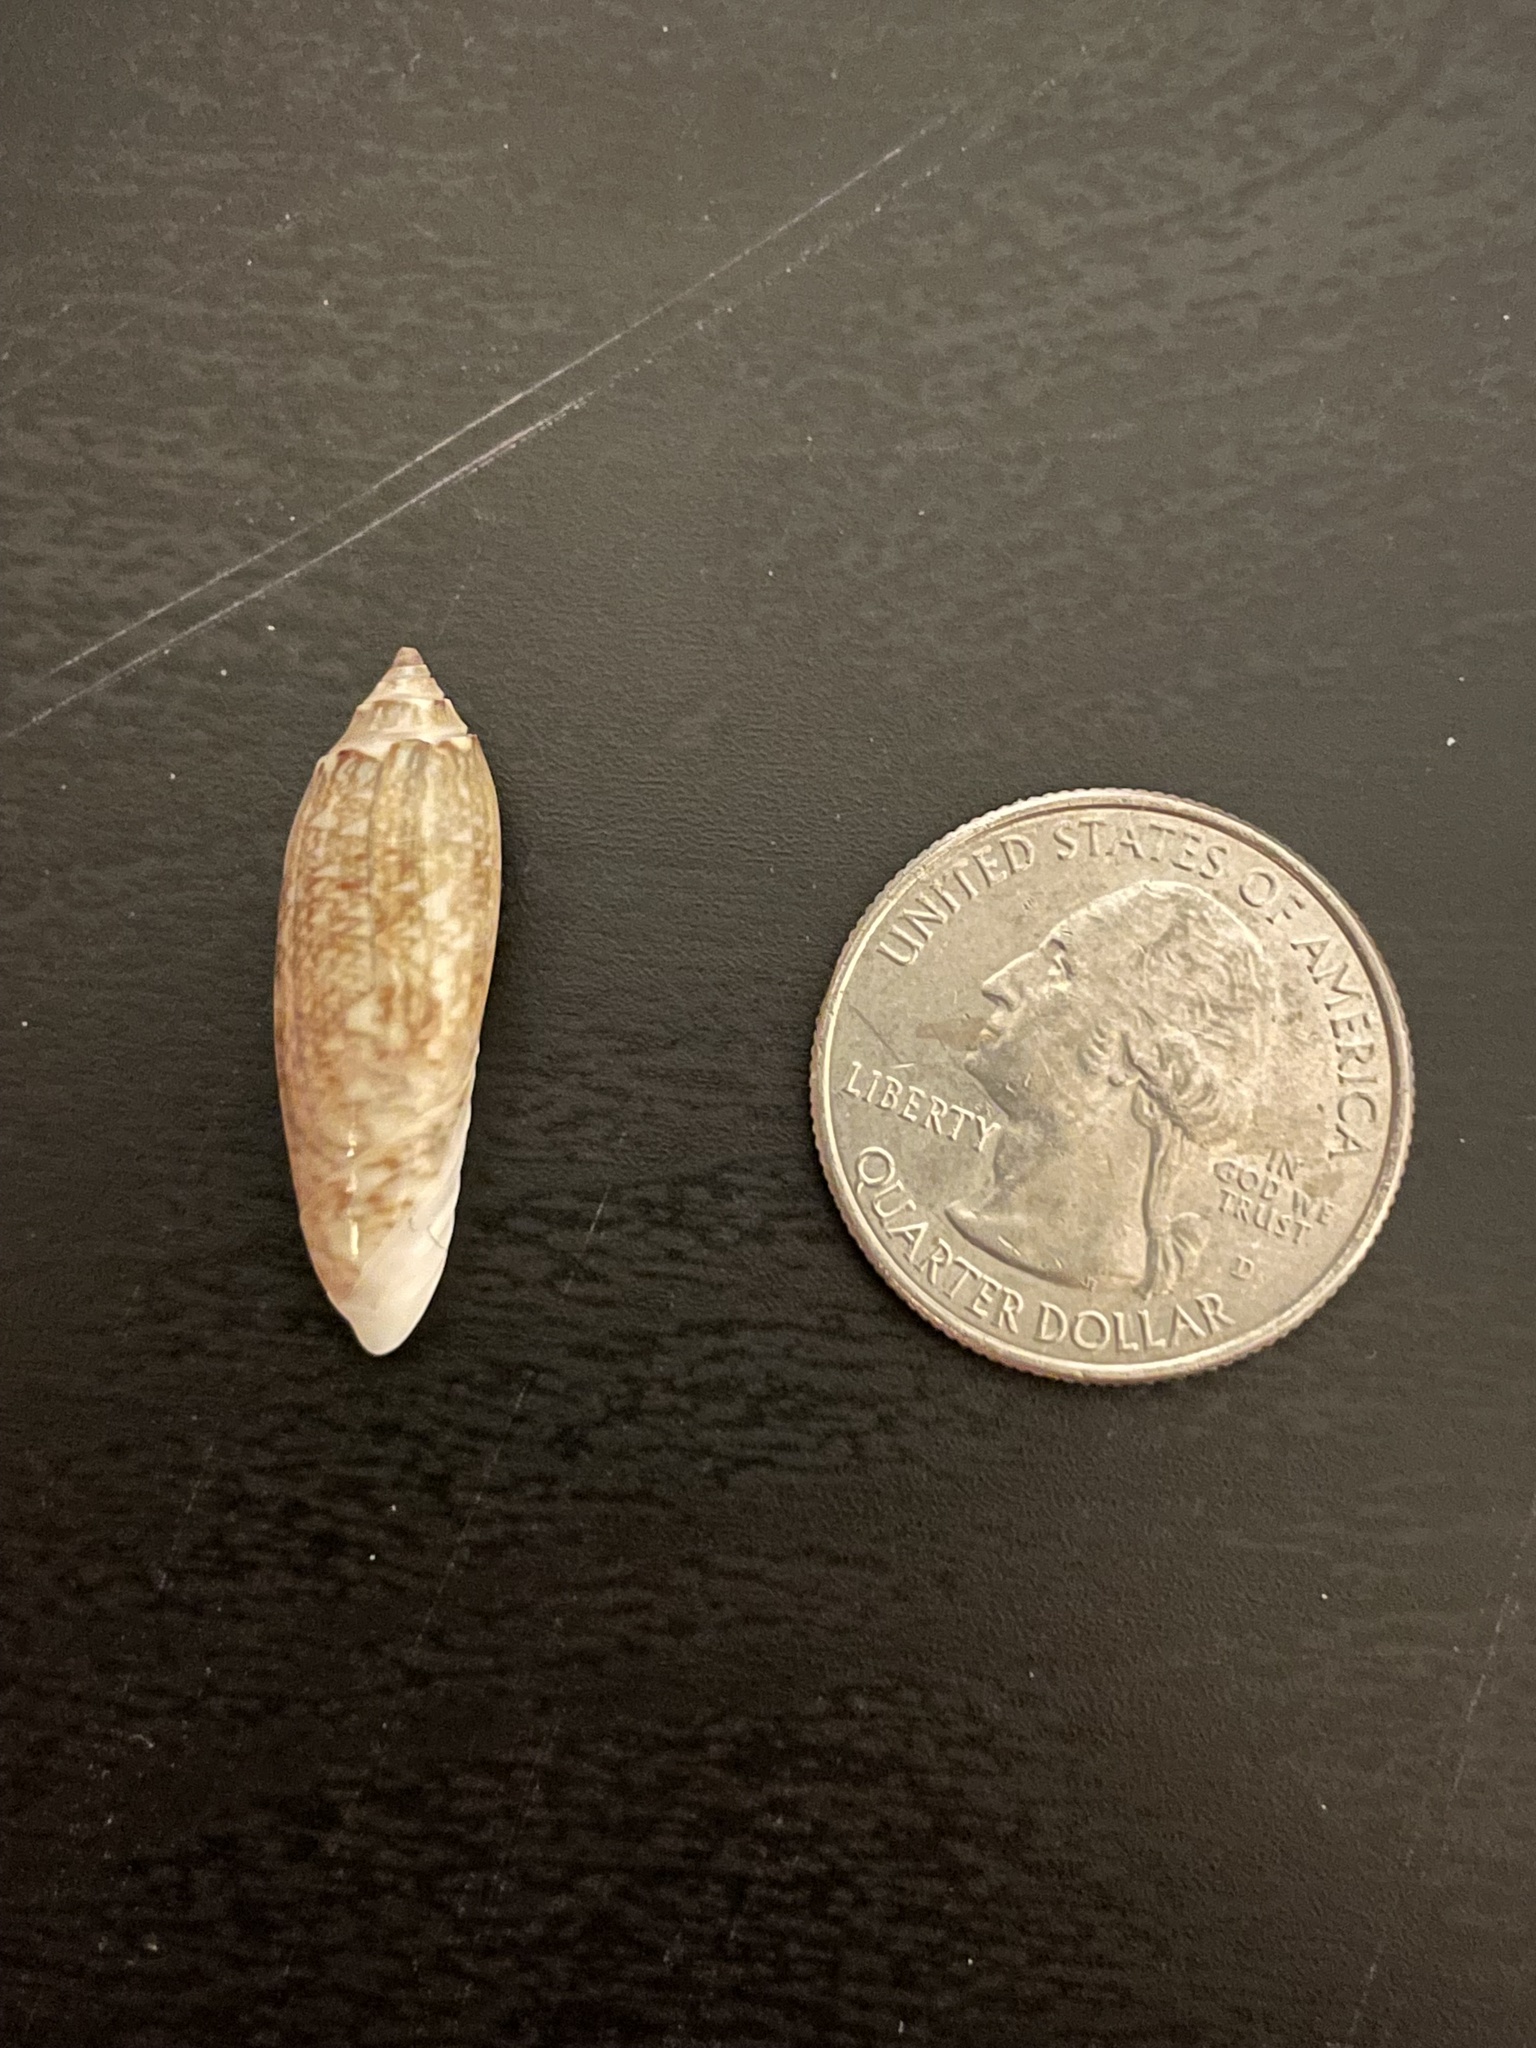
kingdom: Animalia
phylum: Mollusca
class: Gastropoda
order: Neogastropoda
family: Olividae
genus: Oliva
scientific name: Oliva sayana
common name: Lettered olive
